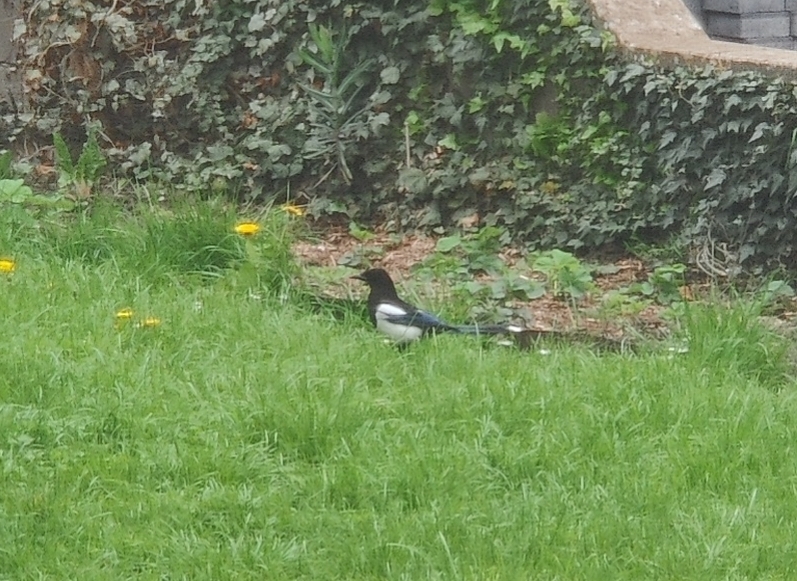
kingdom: Animalia
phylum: Chordata
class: Aves
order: Passeriformes
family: Corvidae
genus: Pica
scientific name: Pica pica
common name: Eurasian magpie
